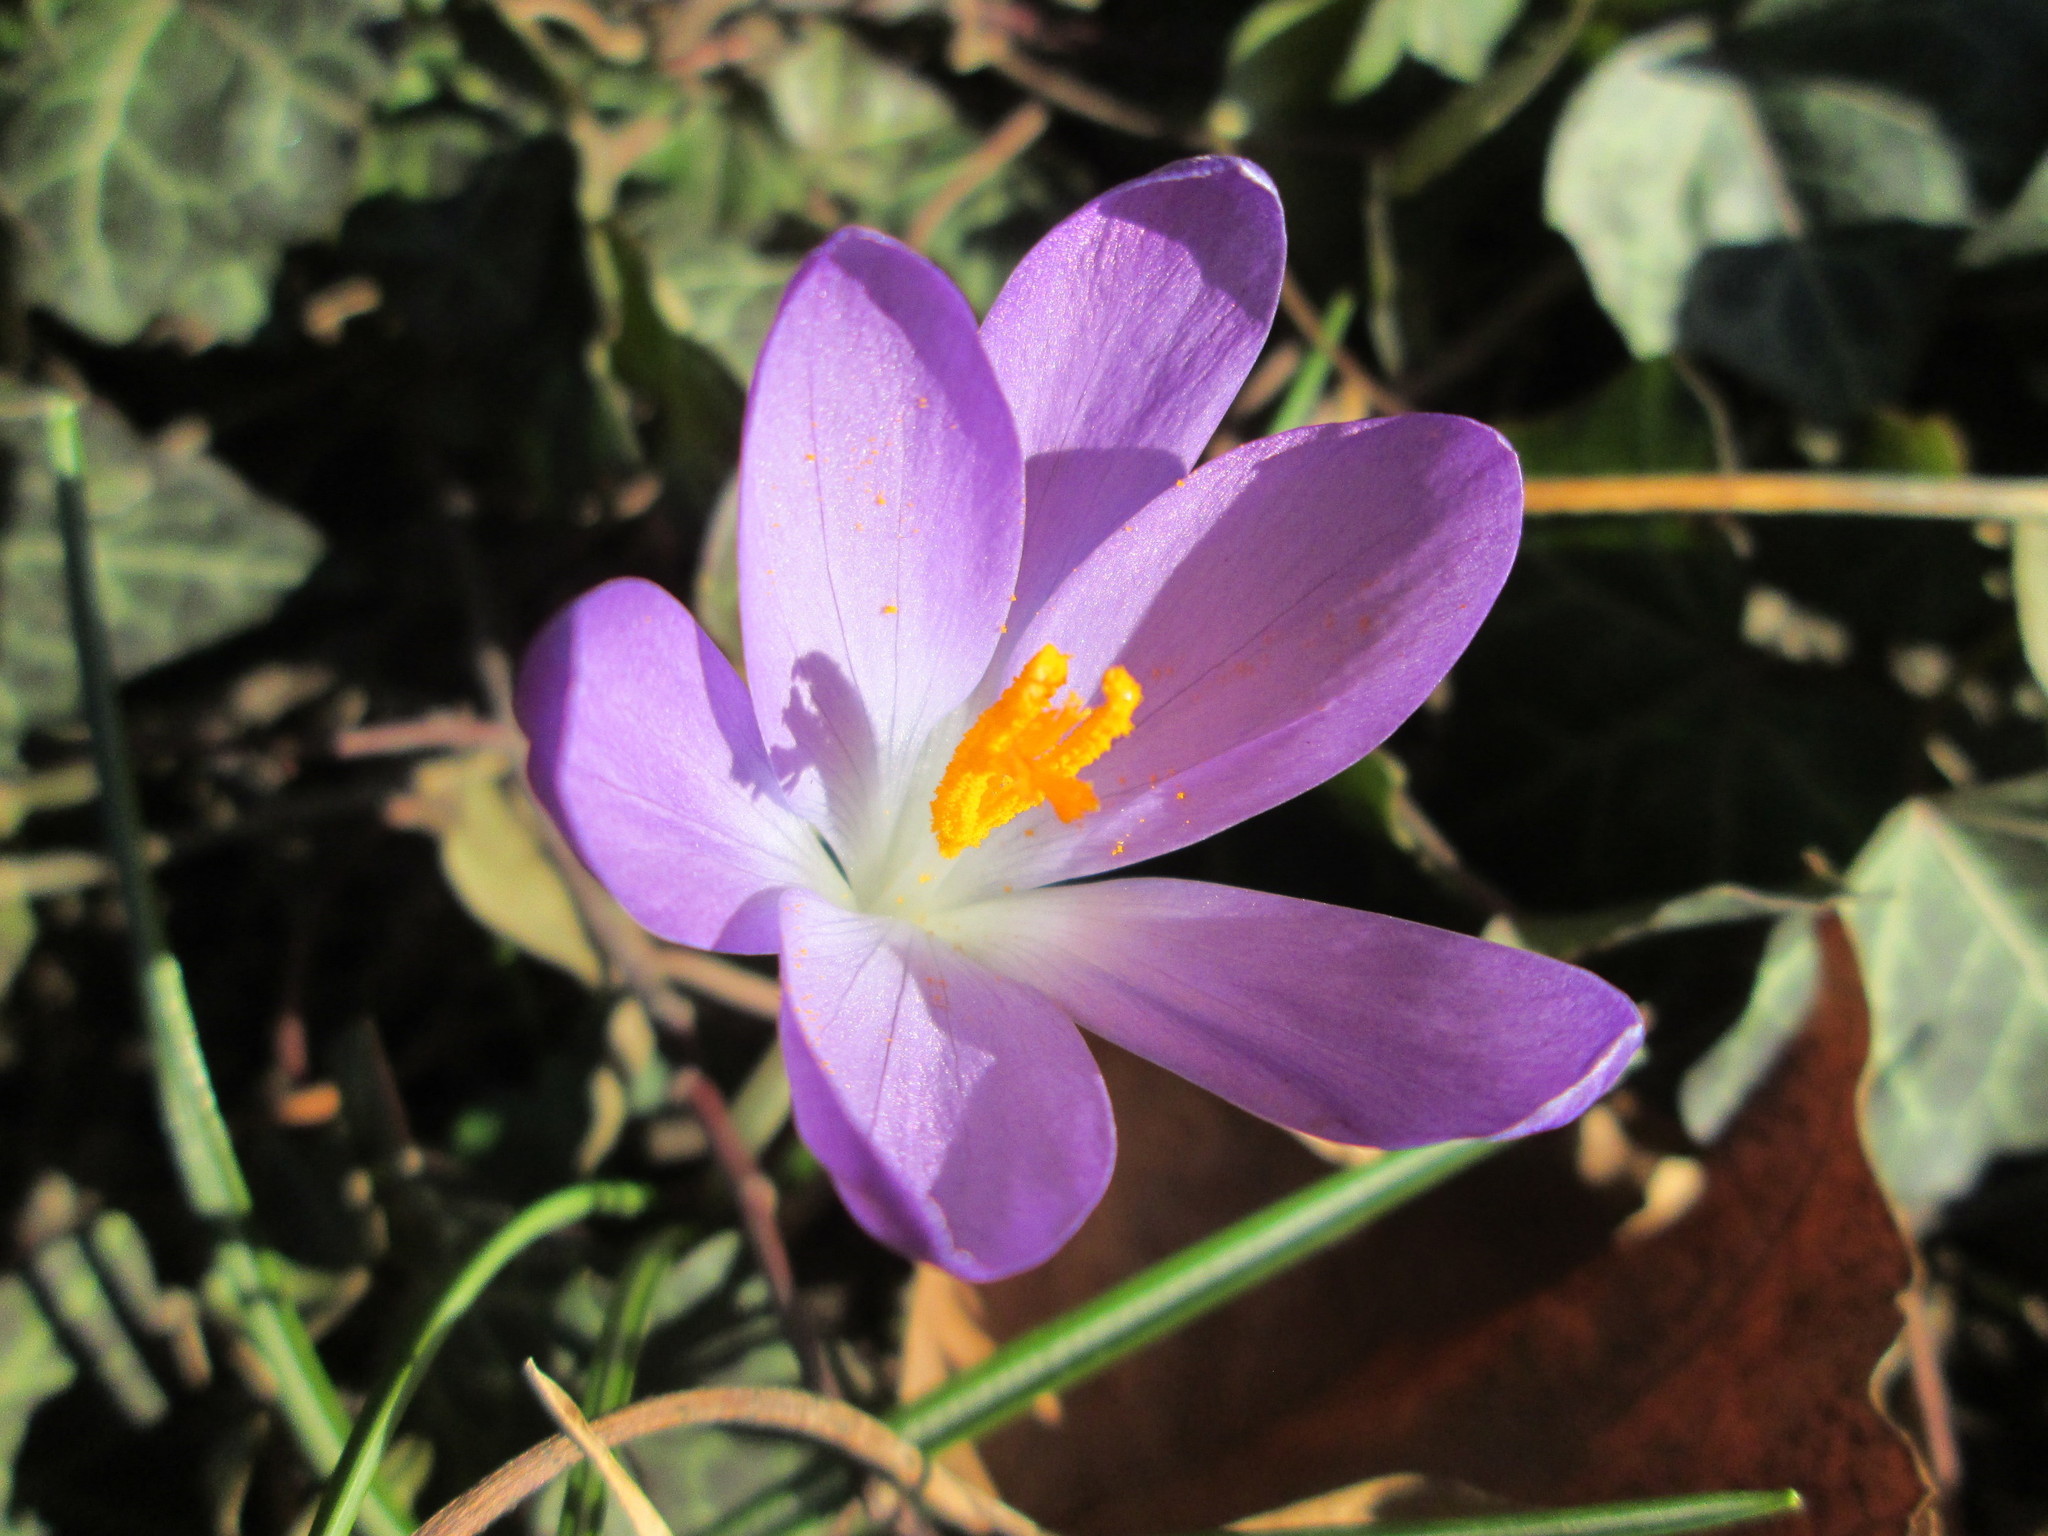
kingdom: Plantae
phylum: Tracheophyta
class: Liliopsida
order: Asparagales
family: Iridaceae
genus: Crocus
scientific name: Crocus tommasinianus
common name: Early crocus
